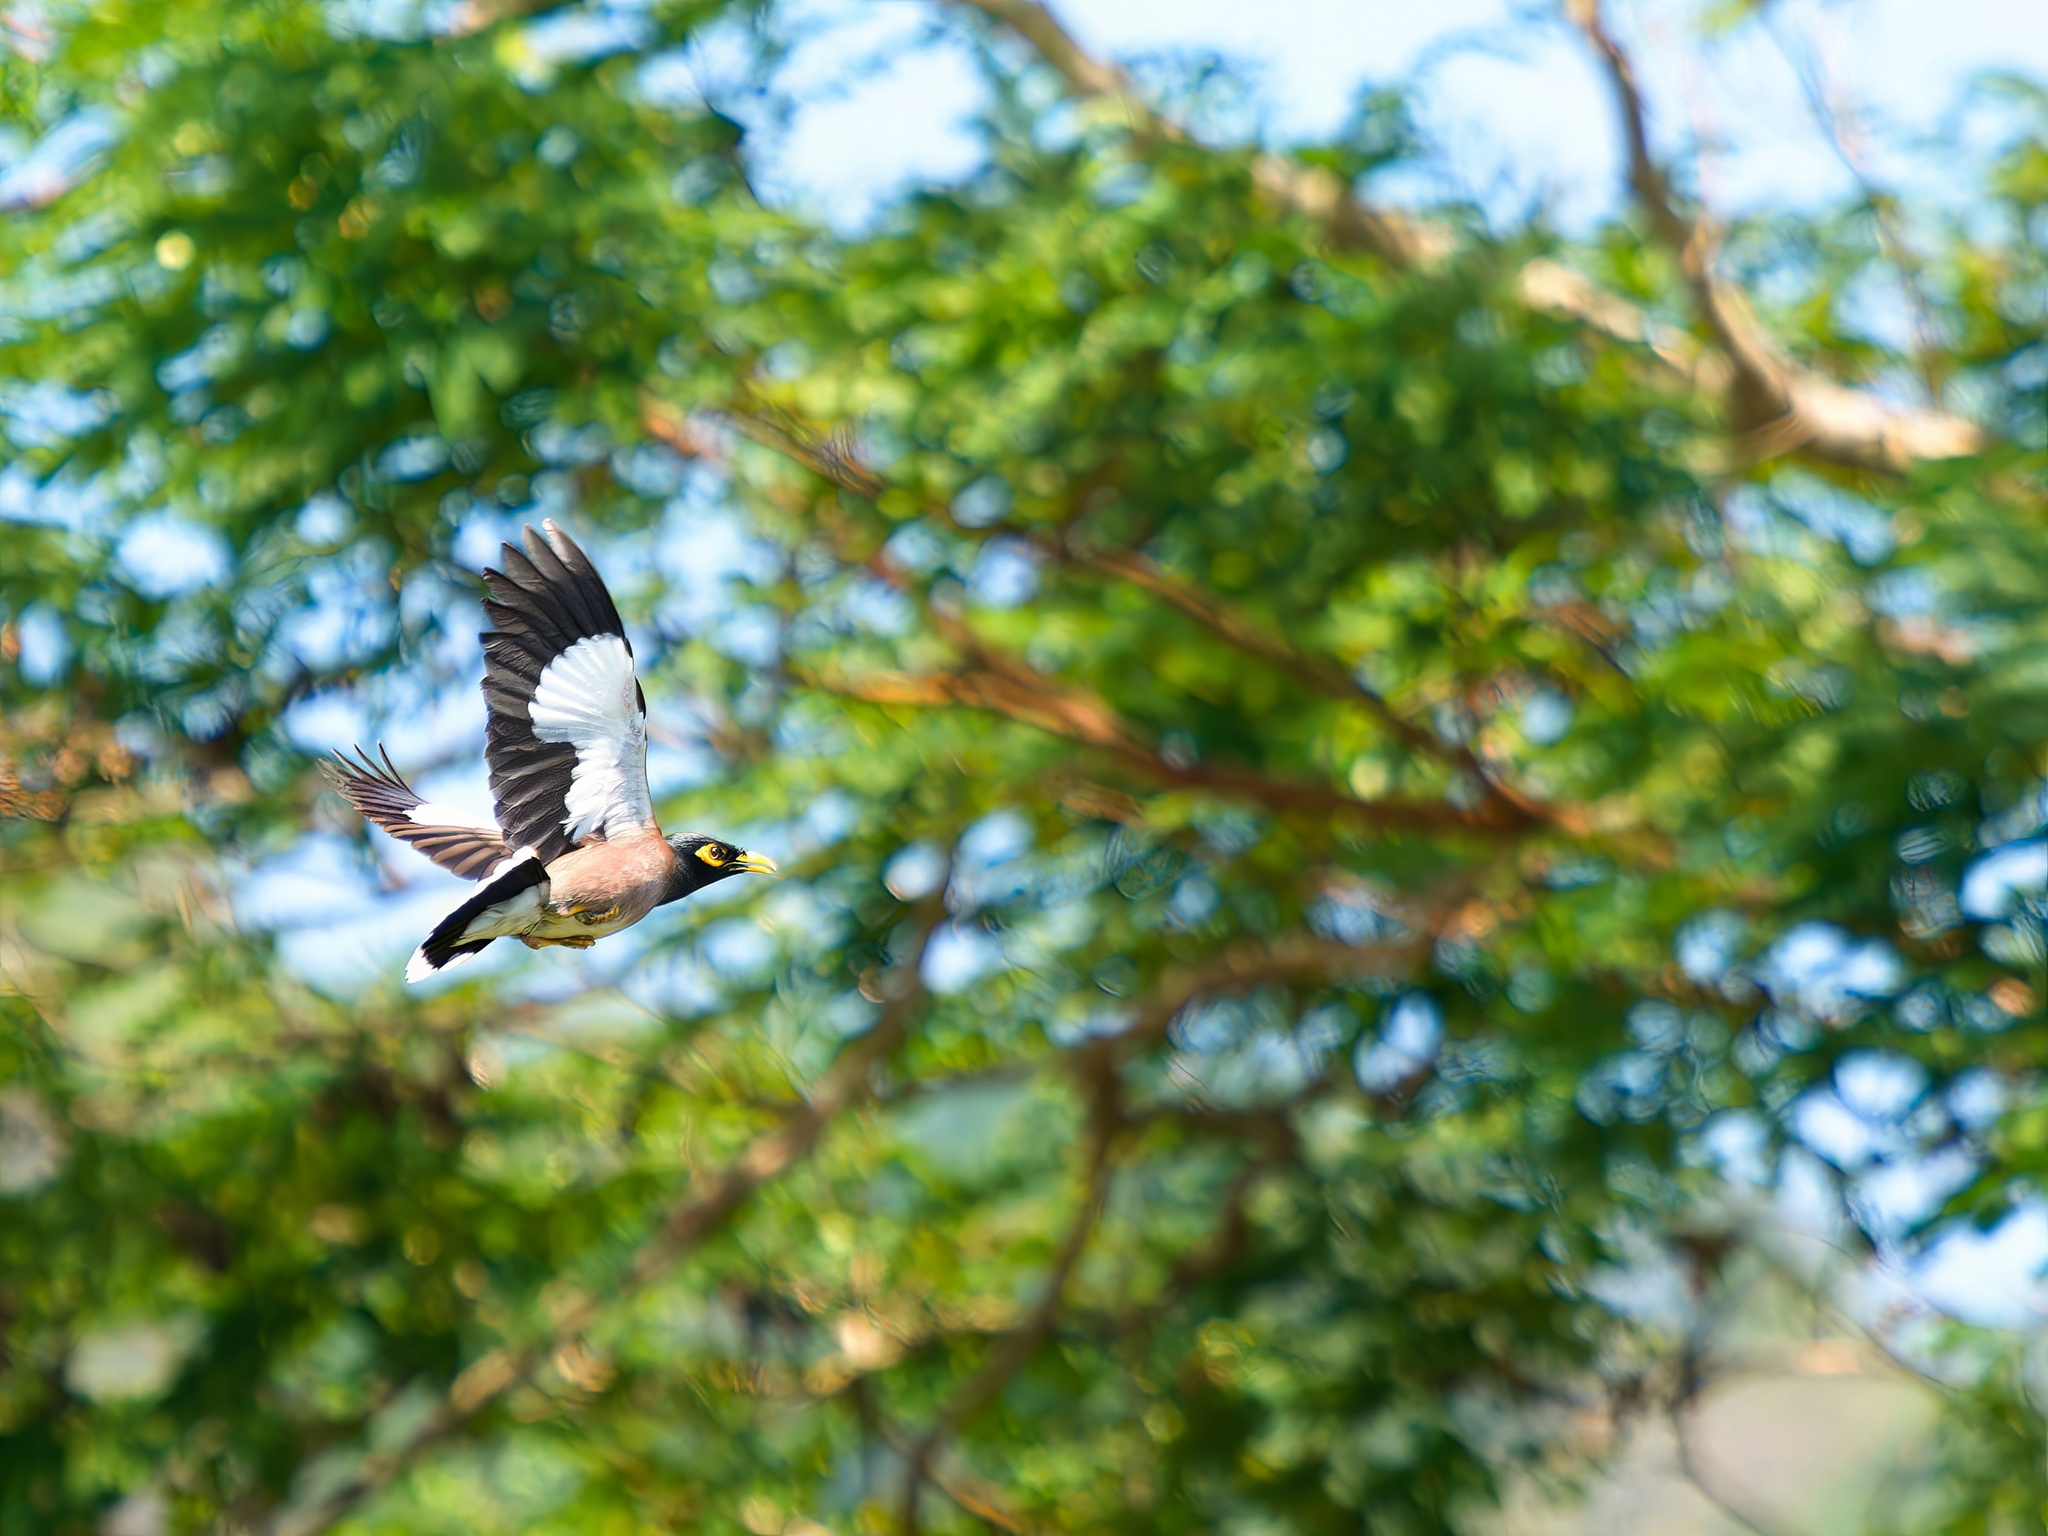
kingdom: Animalia
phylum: Chordata
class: Aves
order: Passeriformes
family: Sturnidae
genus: Acridotheres
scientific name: Acridotheres tristis
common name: Common myna
